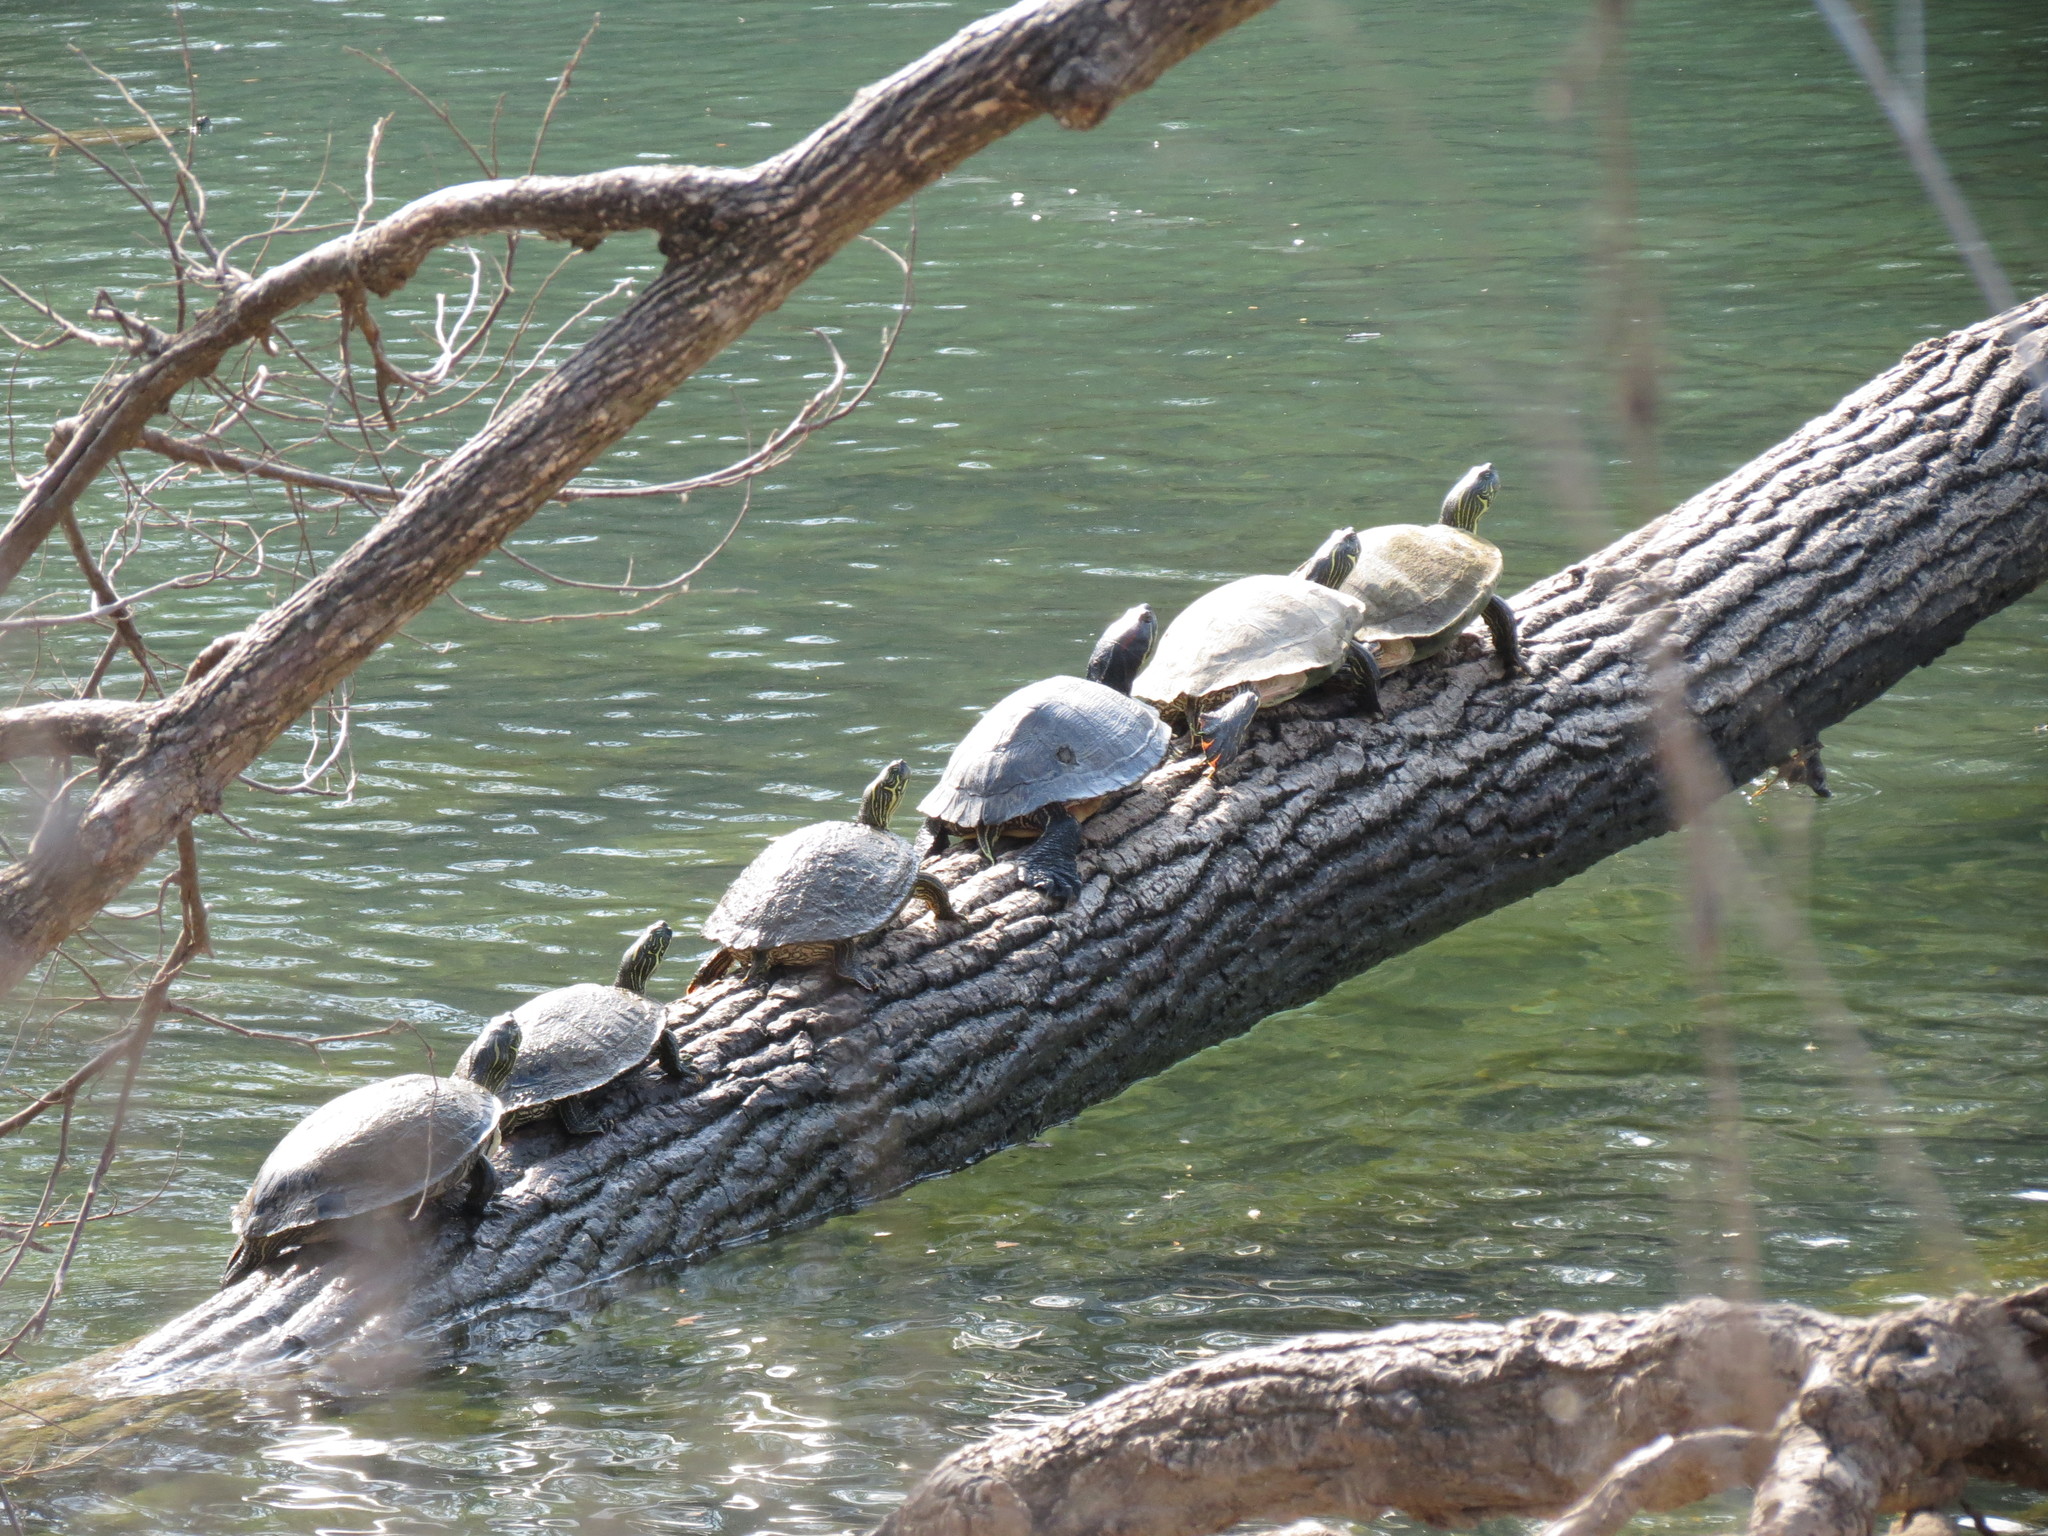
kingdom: Animalia
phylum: Chordata
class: Testudines
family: Emydidae
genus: Trachemys
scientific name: Trachemys scripta
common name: Slider
